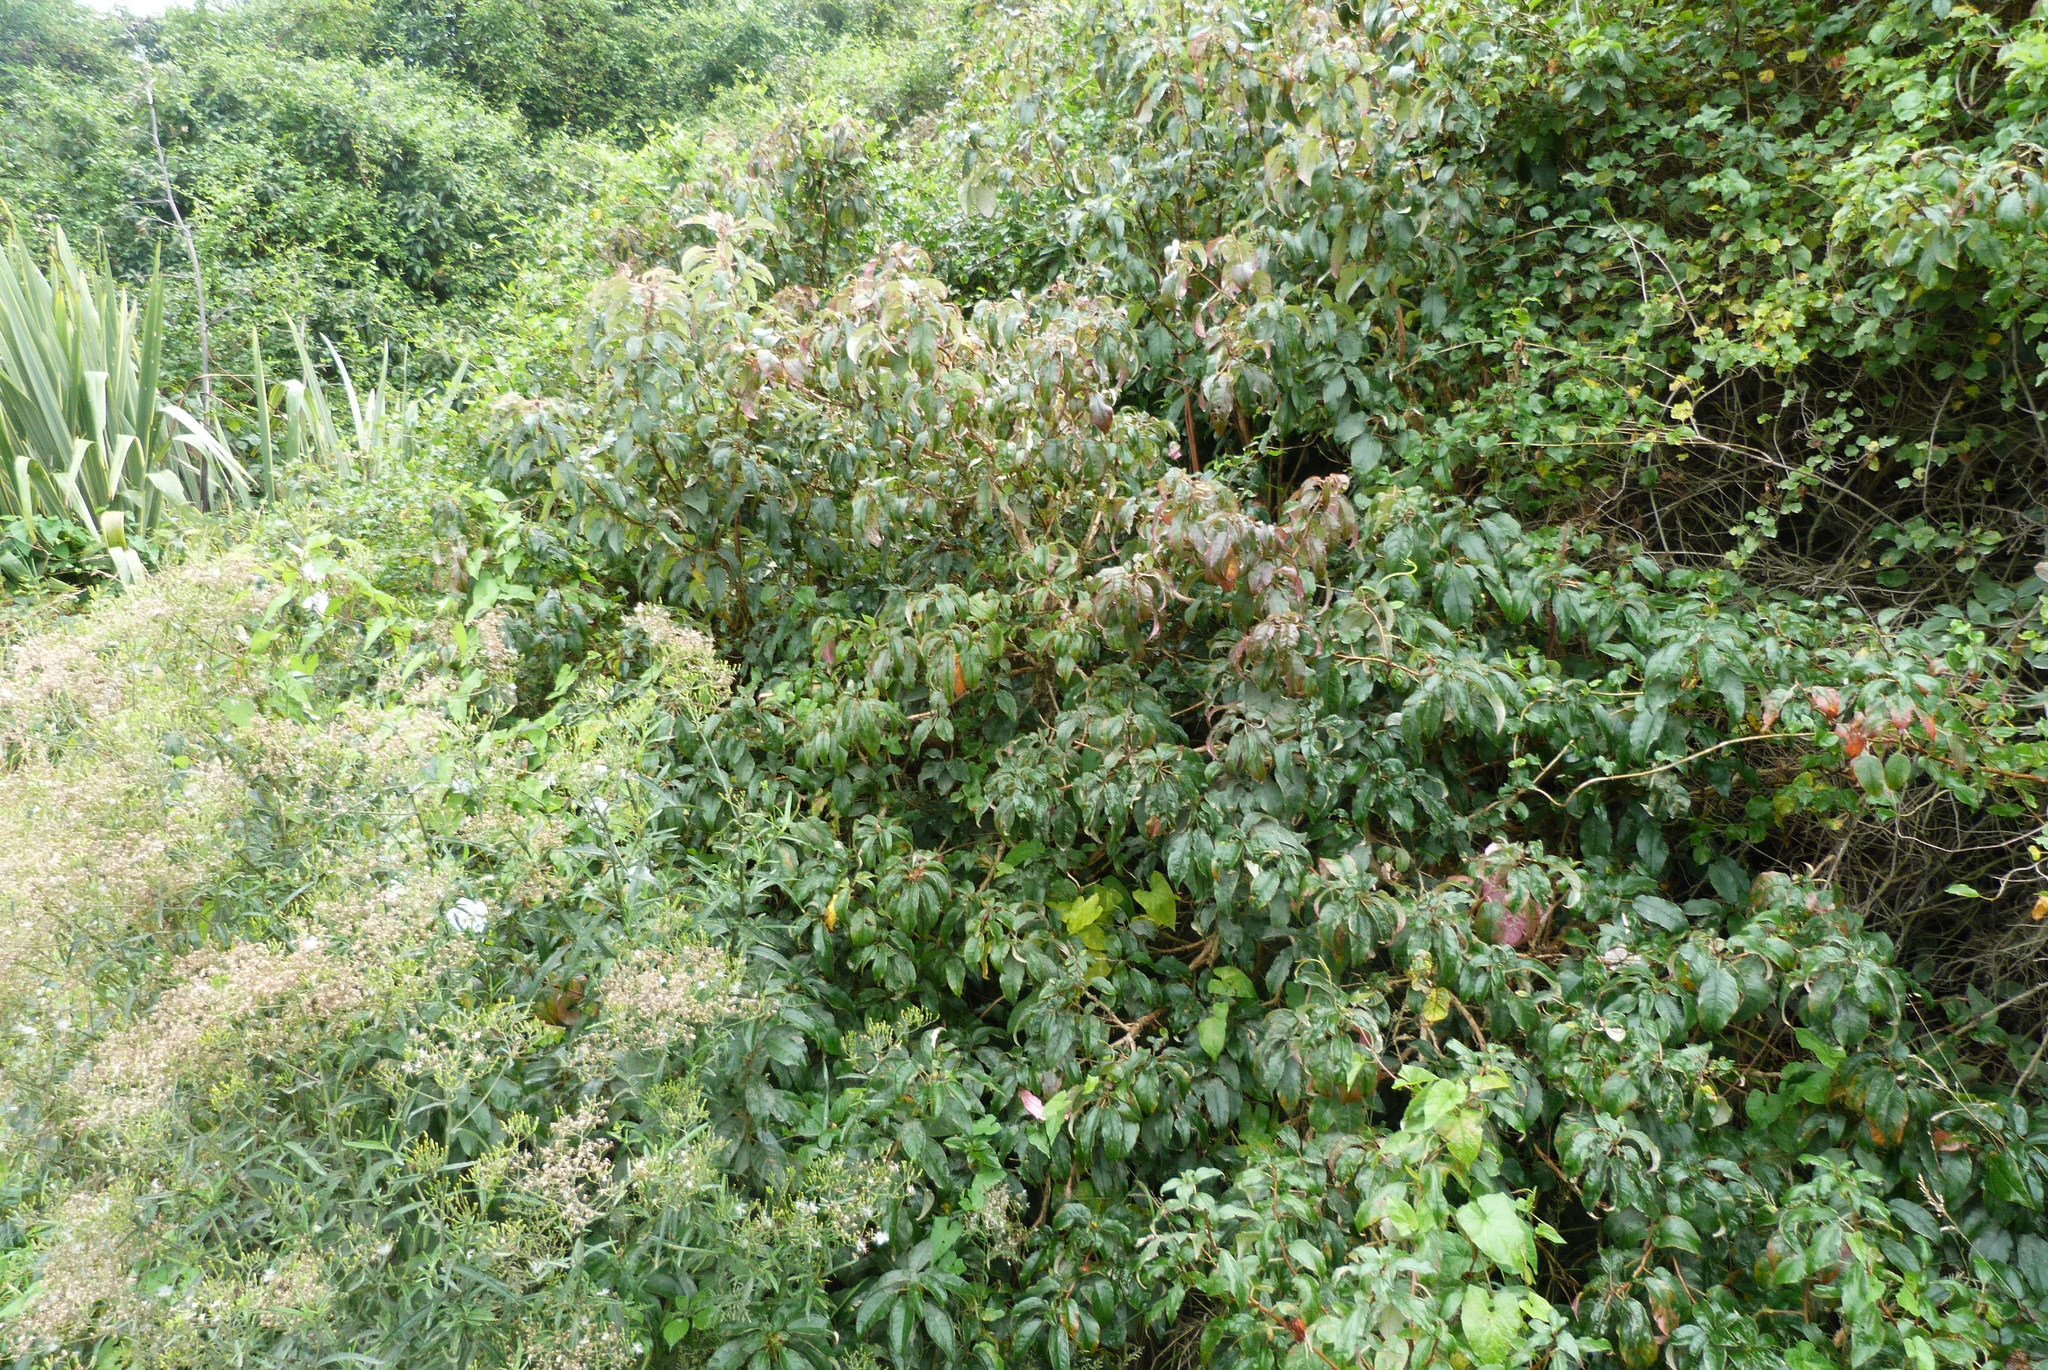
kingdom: Plantae
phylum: Tracheophyta
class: Magnoliopsida
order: Myrtales
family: Onagraceae
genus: Fuchsia
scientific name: Fuchsia excorticata
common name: Tree fuchsia
